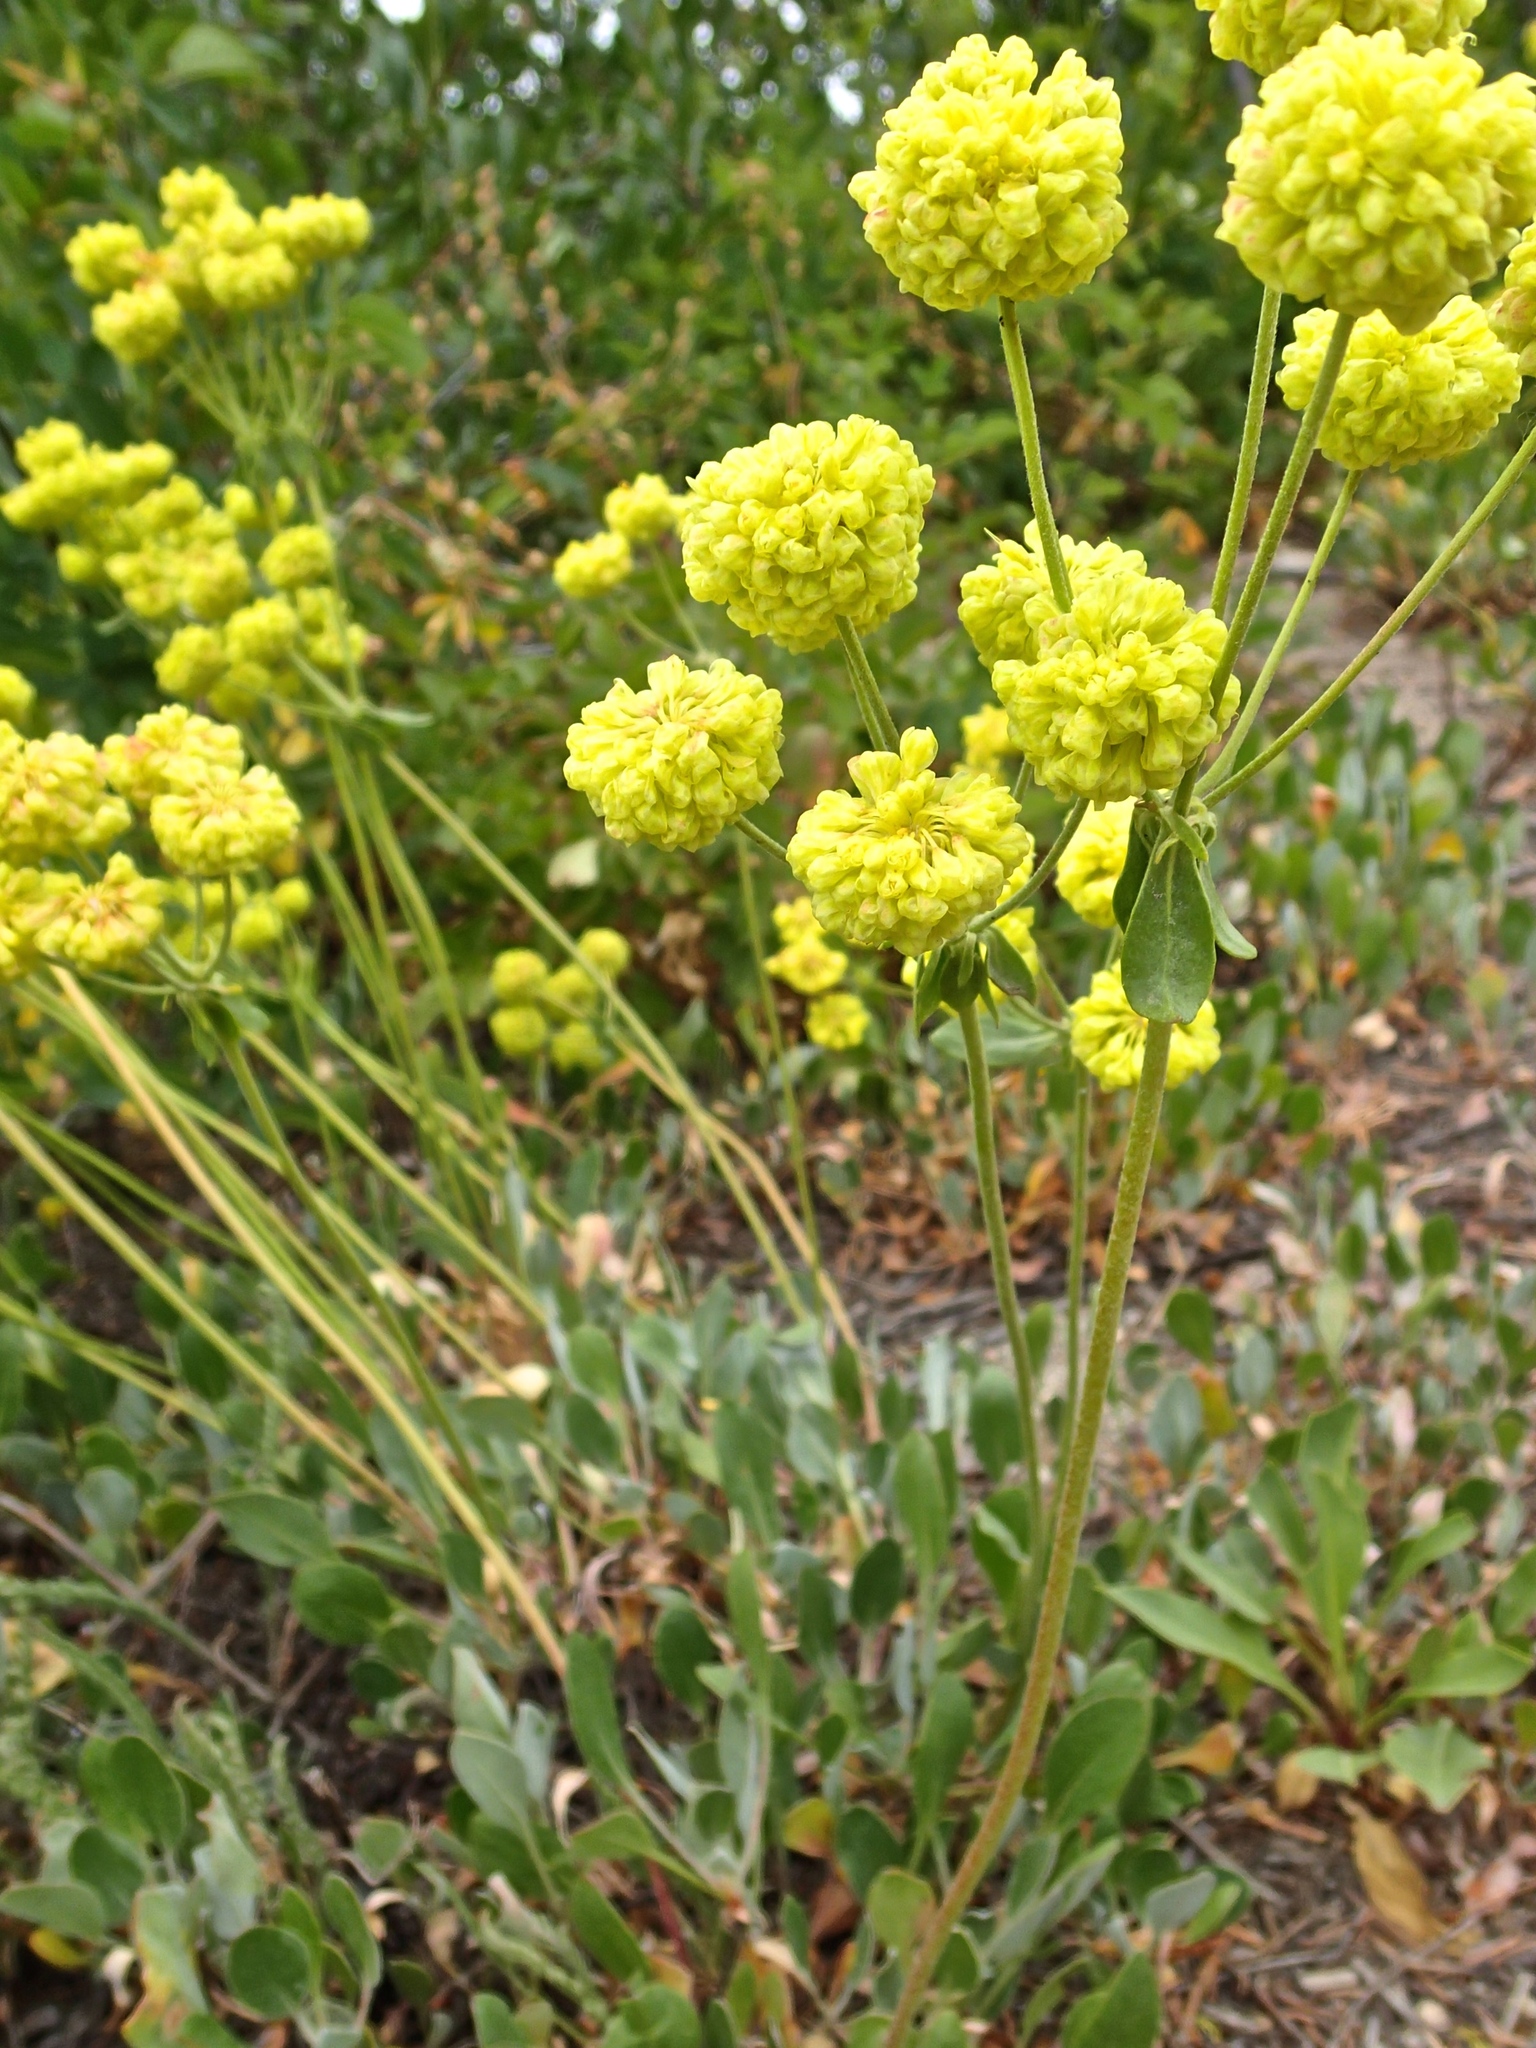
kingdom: Plantae
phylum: Tracheophyta
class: Magnoliopsida
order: Caryophyllales
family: Polygonaceae
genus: Eriogonum
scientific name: Eriogonum umbellatum
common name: Sulfur-buckwheat
